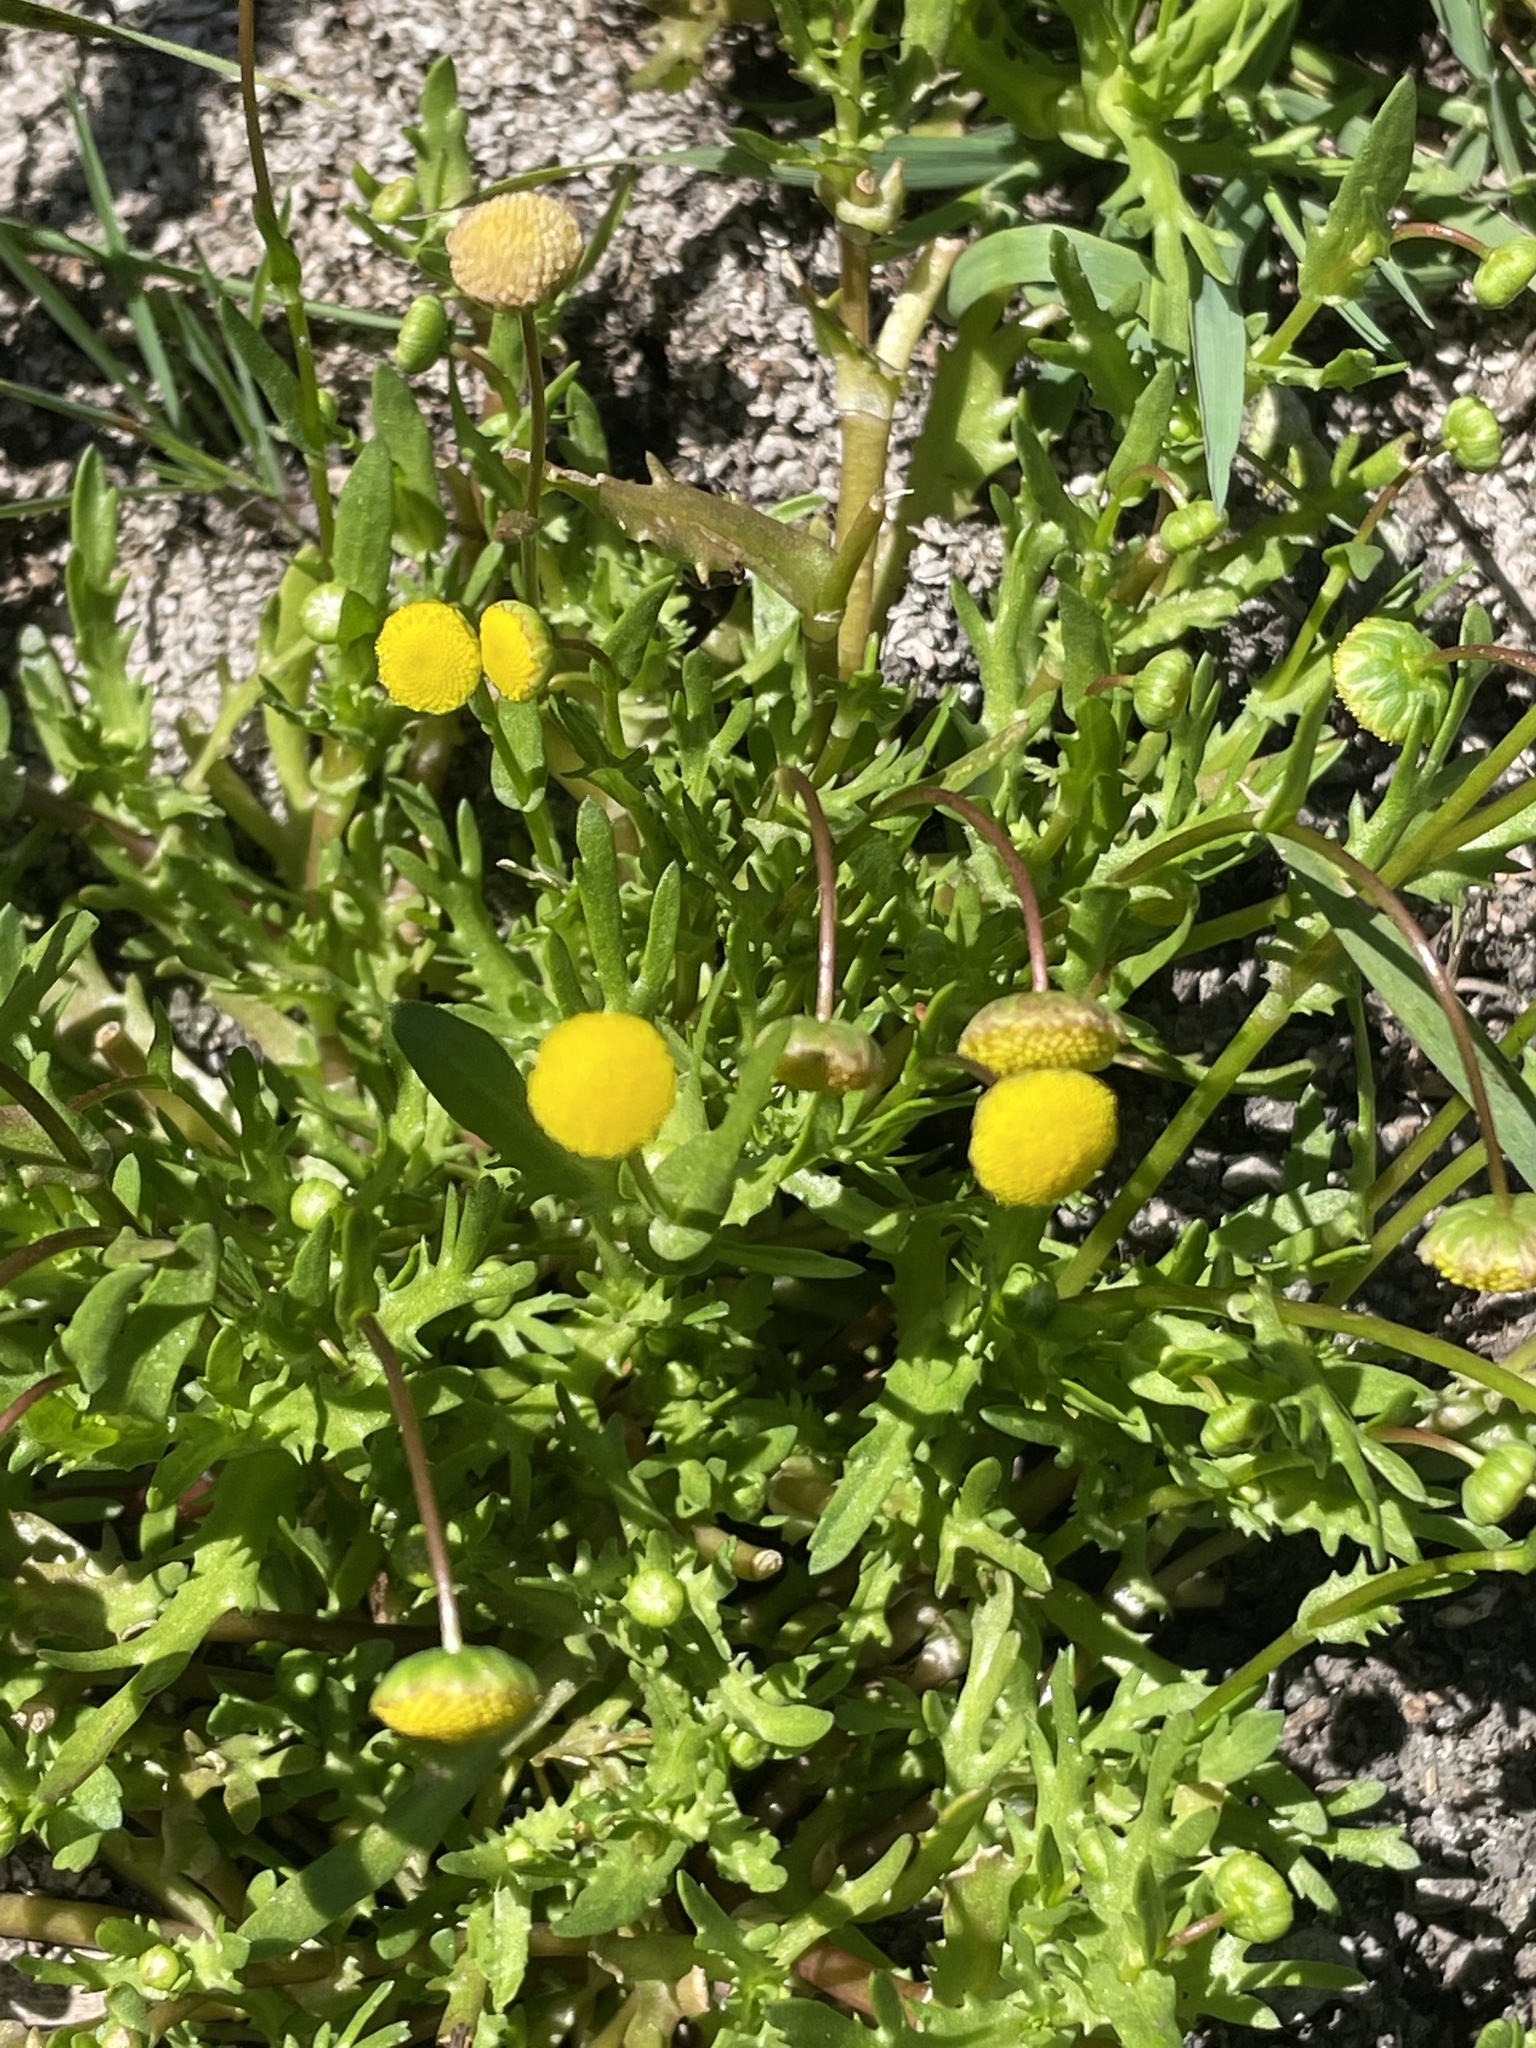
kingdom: Plantae
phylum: Tracheophyta
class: Magnoliopsida
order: Asterales
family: Asteraceae
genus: Cotula
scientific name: Cotula coronopifolia
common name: Buttonweed
